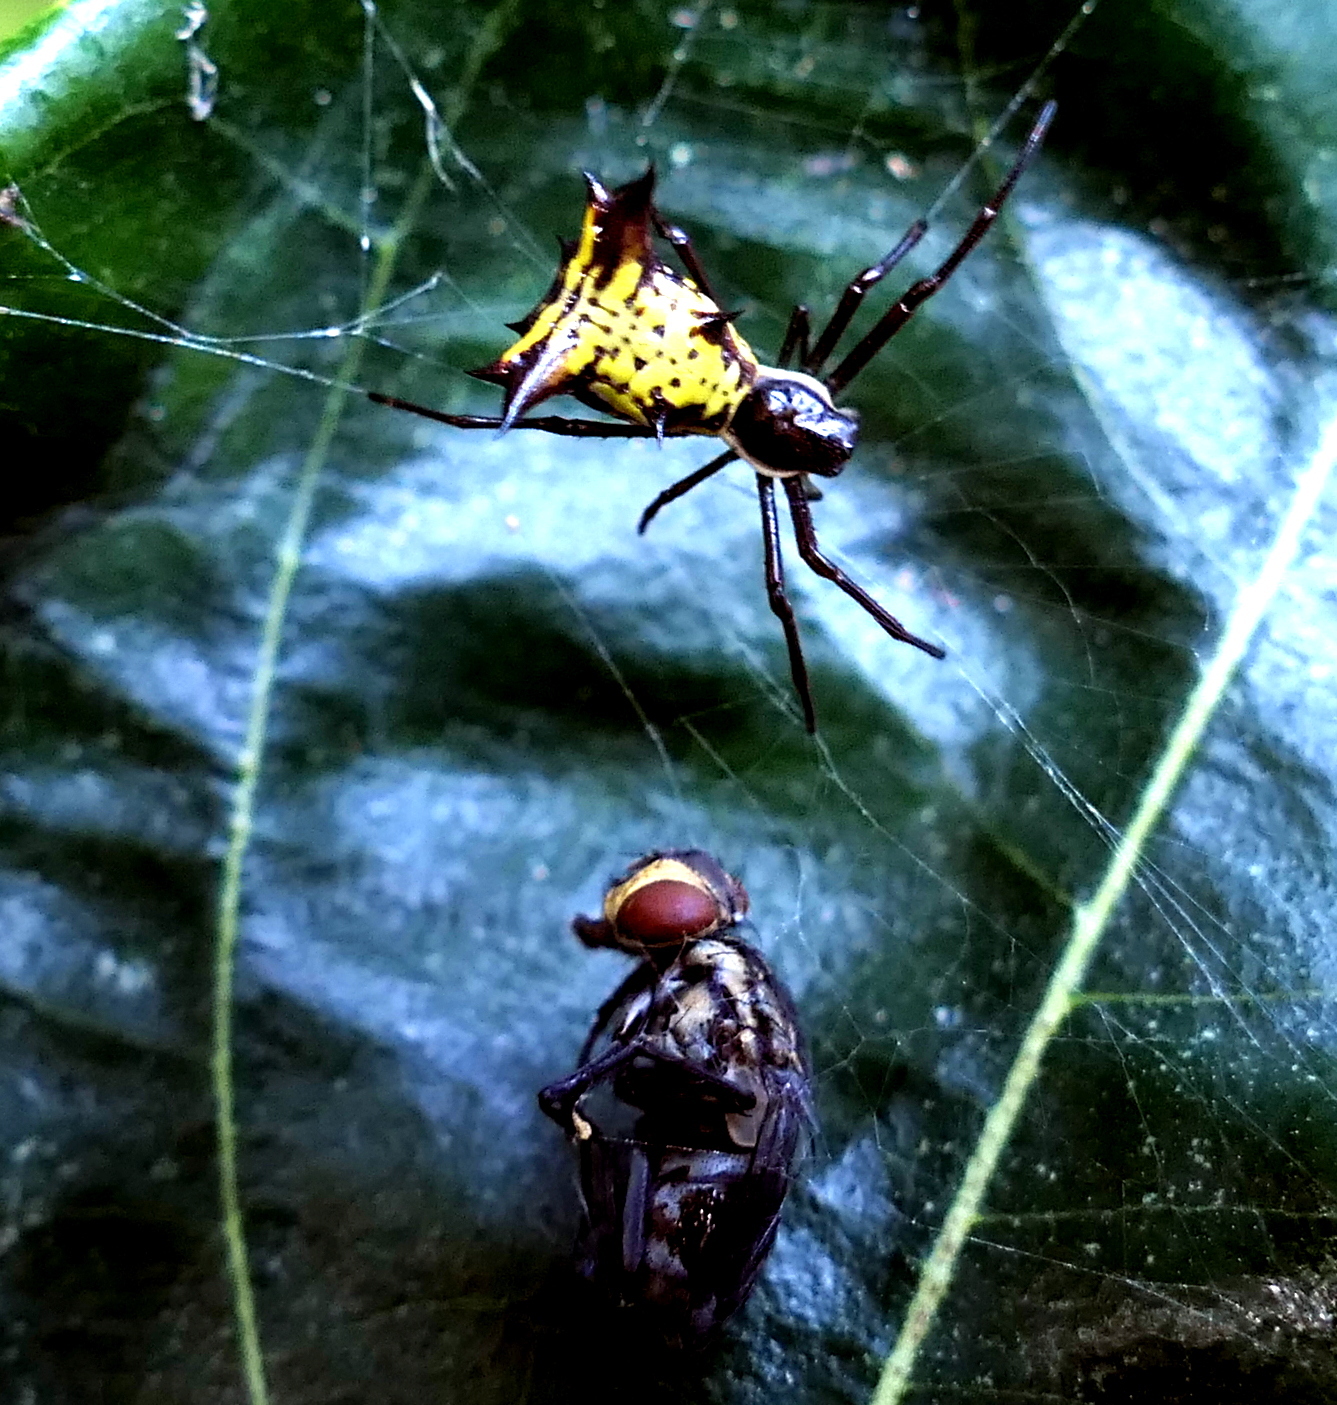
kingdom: Animalia
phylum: Arthropoda
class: Arachnida
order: Araneae
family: Araneidae
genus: Micrathena
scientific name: Micrathena fissispina
